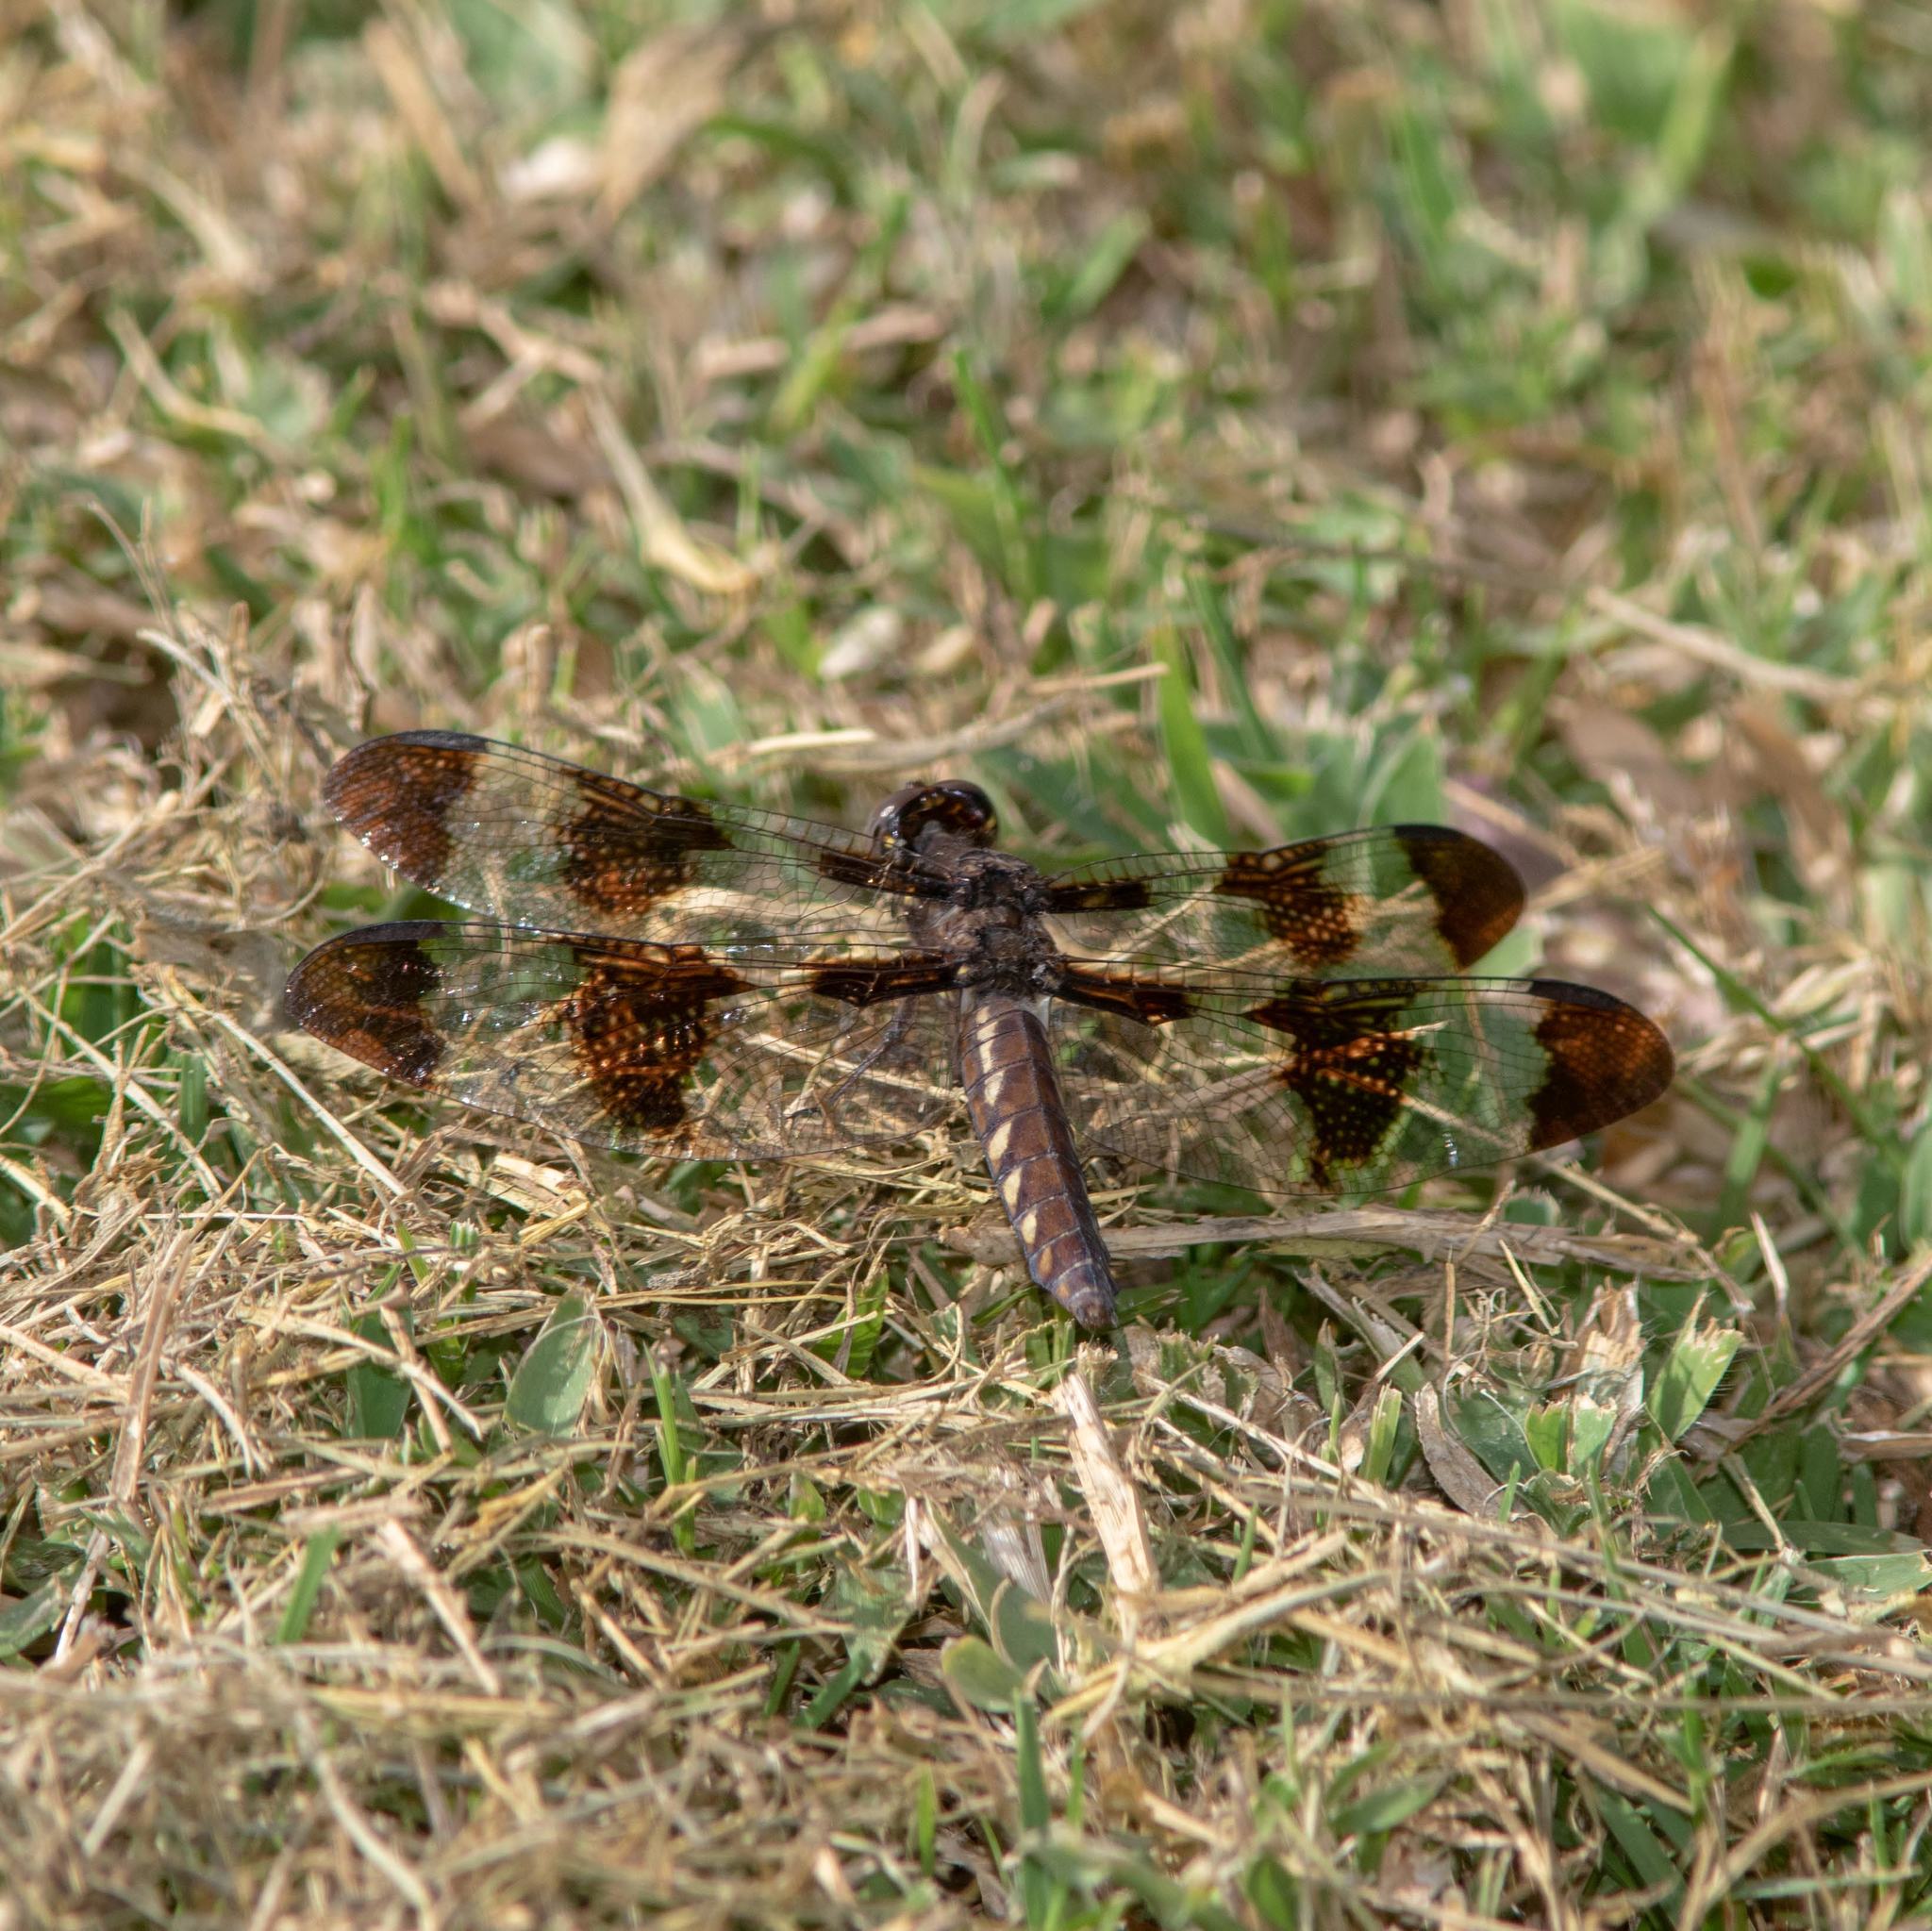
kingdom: Animalia
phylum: Arthropoda
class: Insecta
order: Odonata
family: Libellulidae
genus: Plathemis
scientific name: Plathemis lydia
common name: Common whitetail
